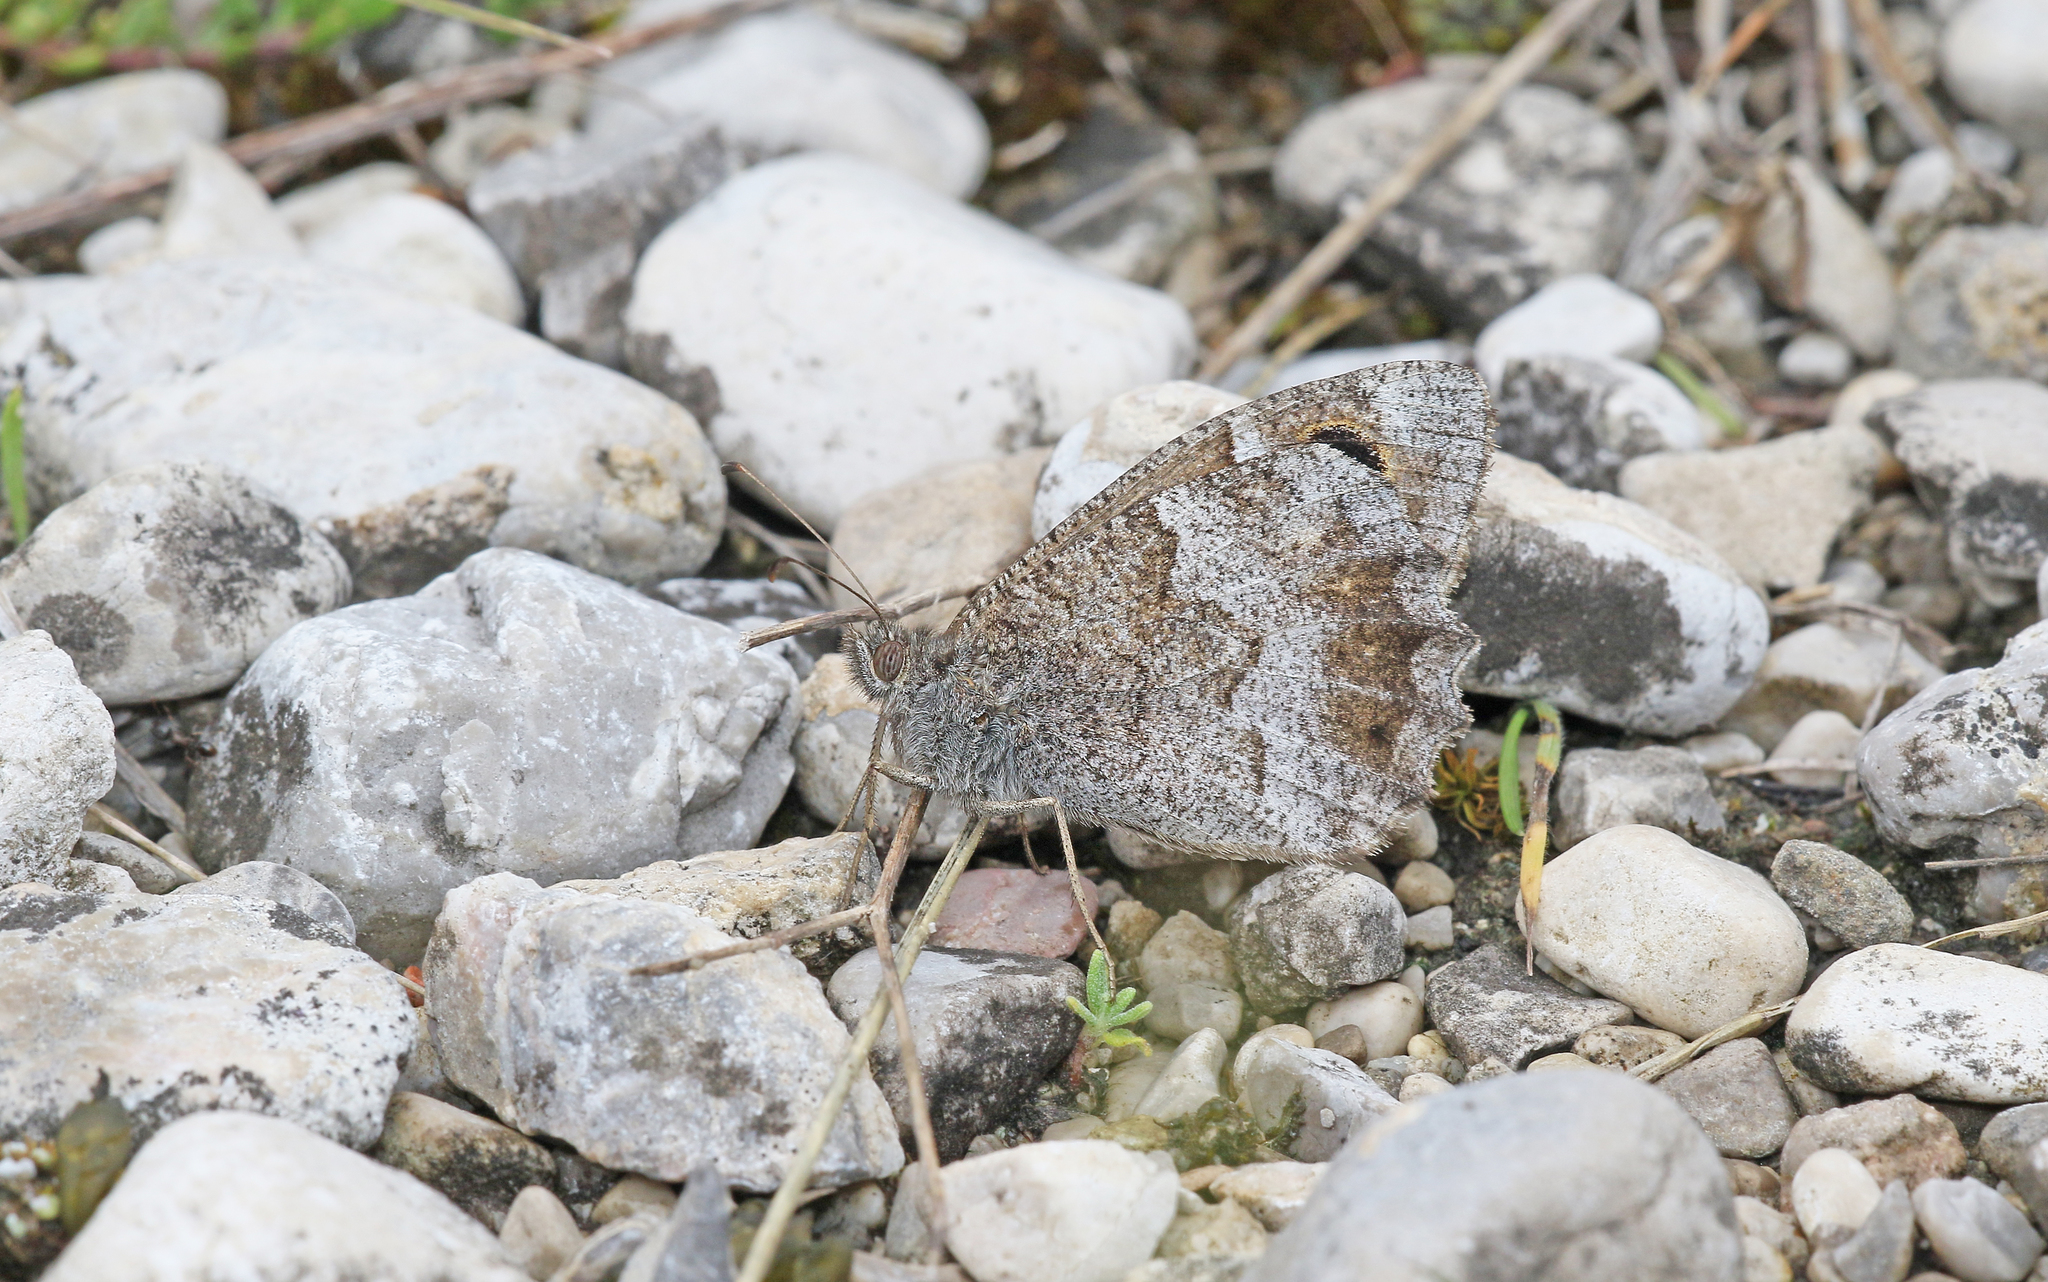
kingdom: Animalia
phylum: Arthropoda
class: Insecta
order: Lepidoptera
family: Nymphalidae
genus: Hipparchia
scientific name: Hipparchia statilinus
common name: Tree grayling
